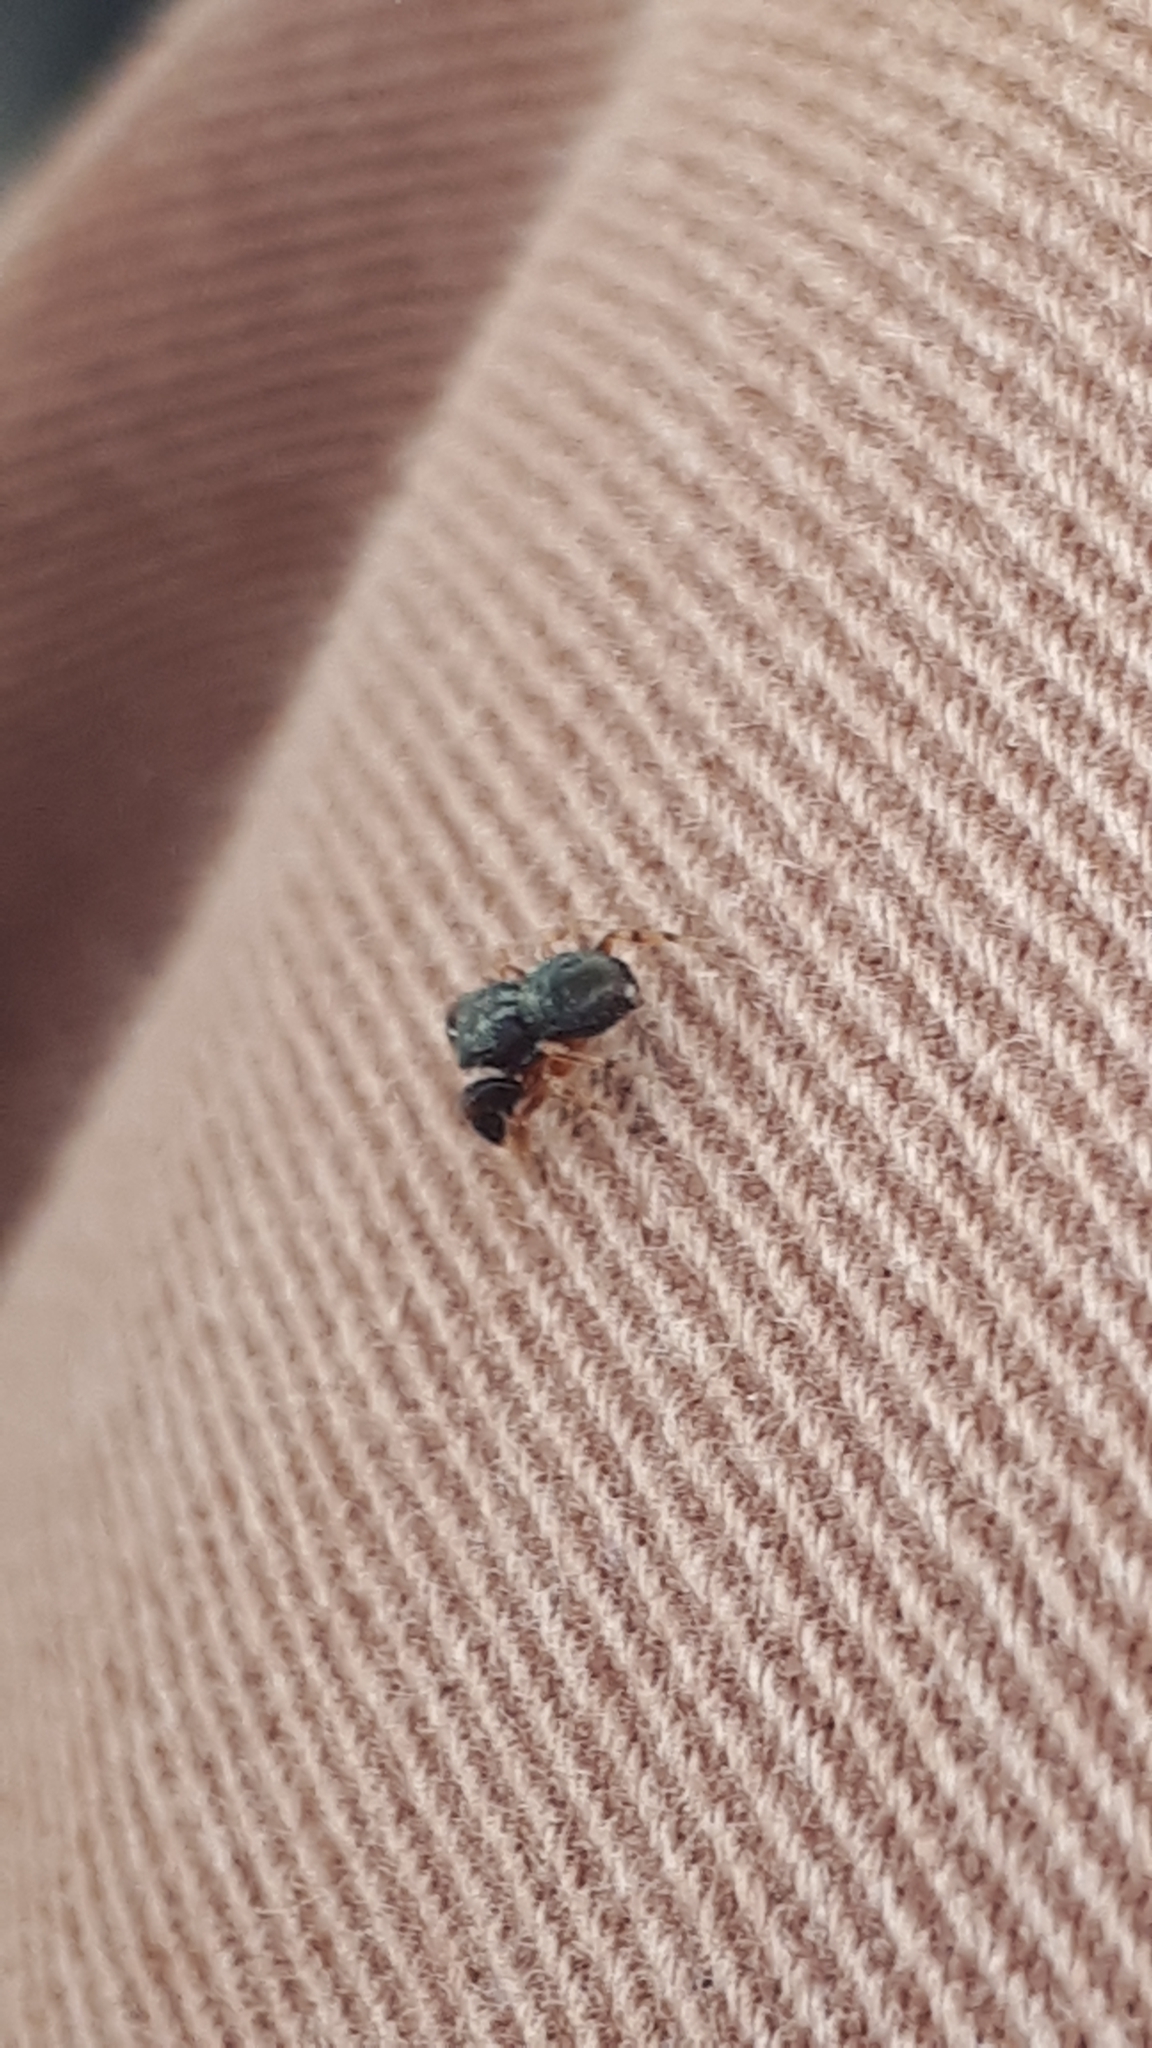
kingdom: Animalia
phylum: Arthropoda
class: Arachnida
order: Araneae
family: Salticidae
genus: Ballus
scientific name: Ballus chalybeius
